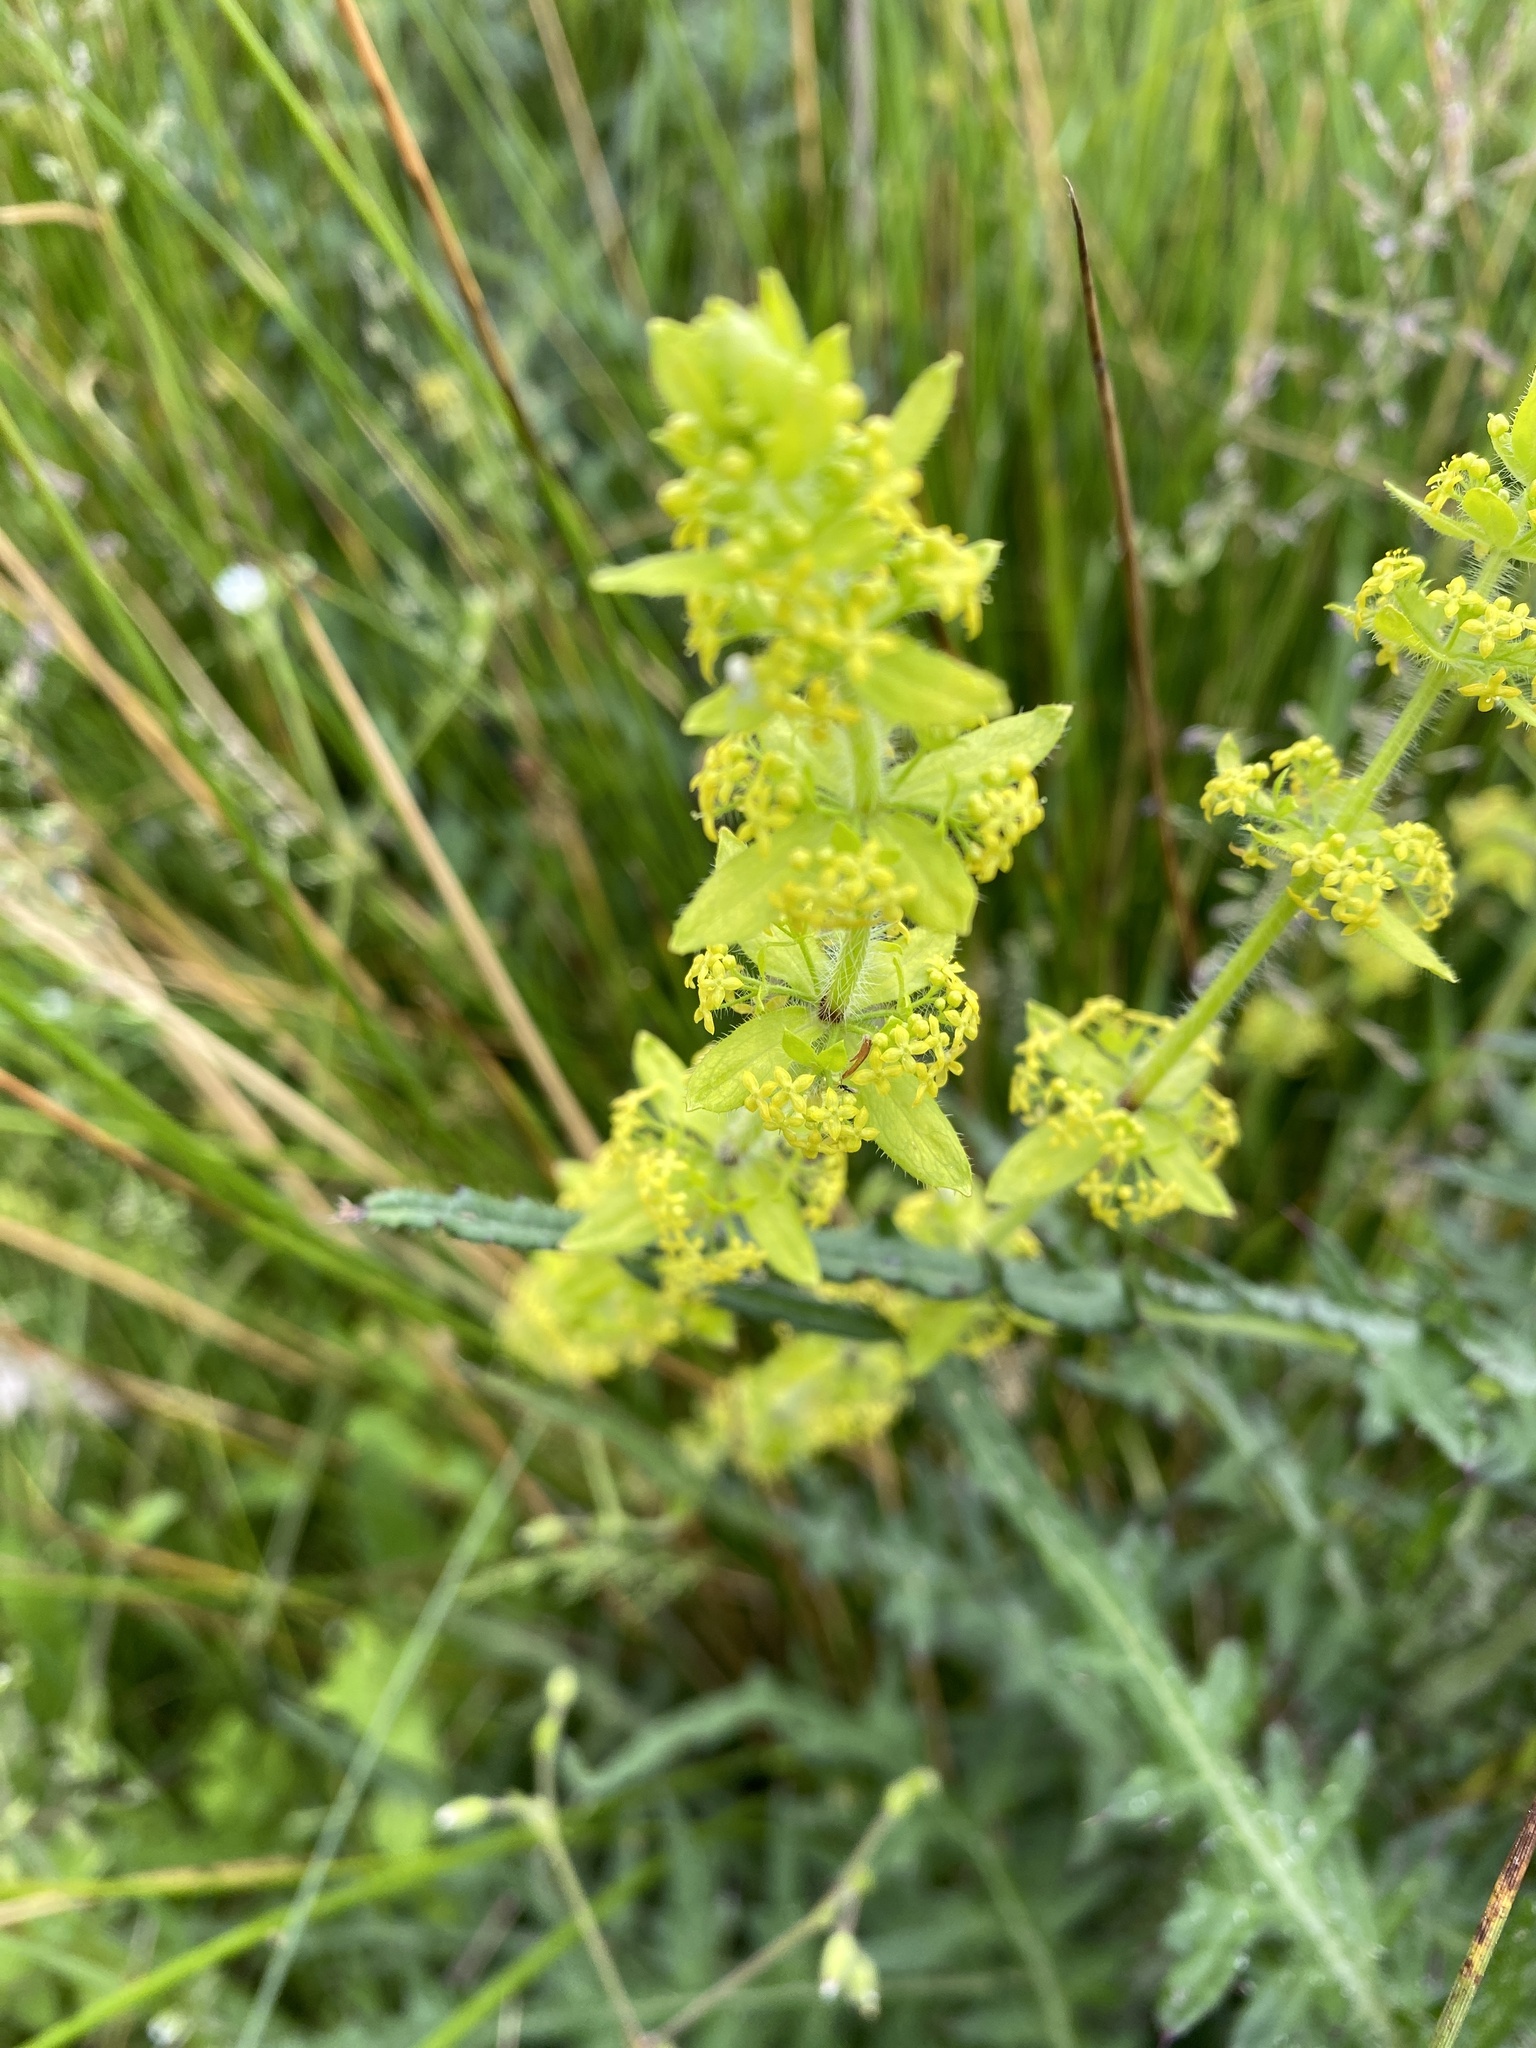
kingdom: Plantae
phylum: Tracheophyta
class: Magnoliopsida
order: Gentianales
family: Rubiaceae
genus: Cruciata
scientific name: Cruciata laevipes
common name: Crosswort
